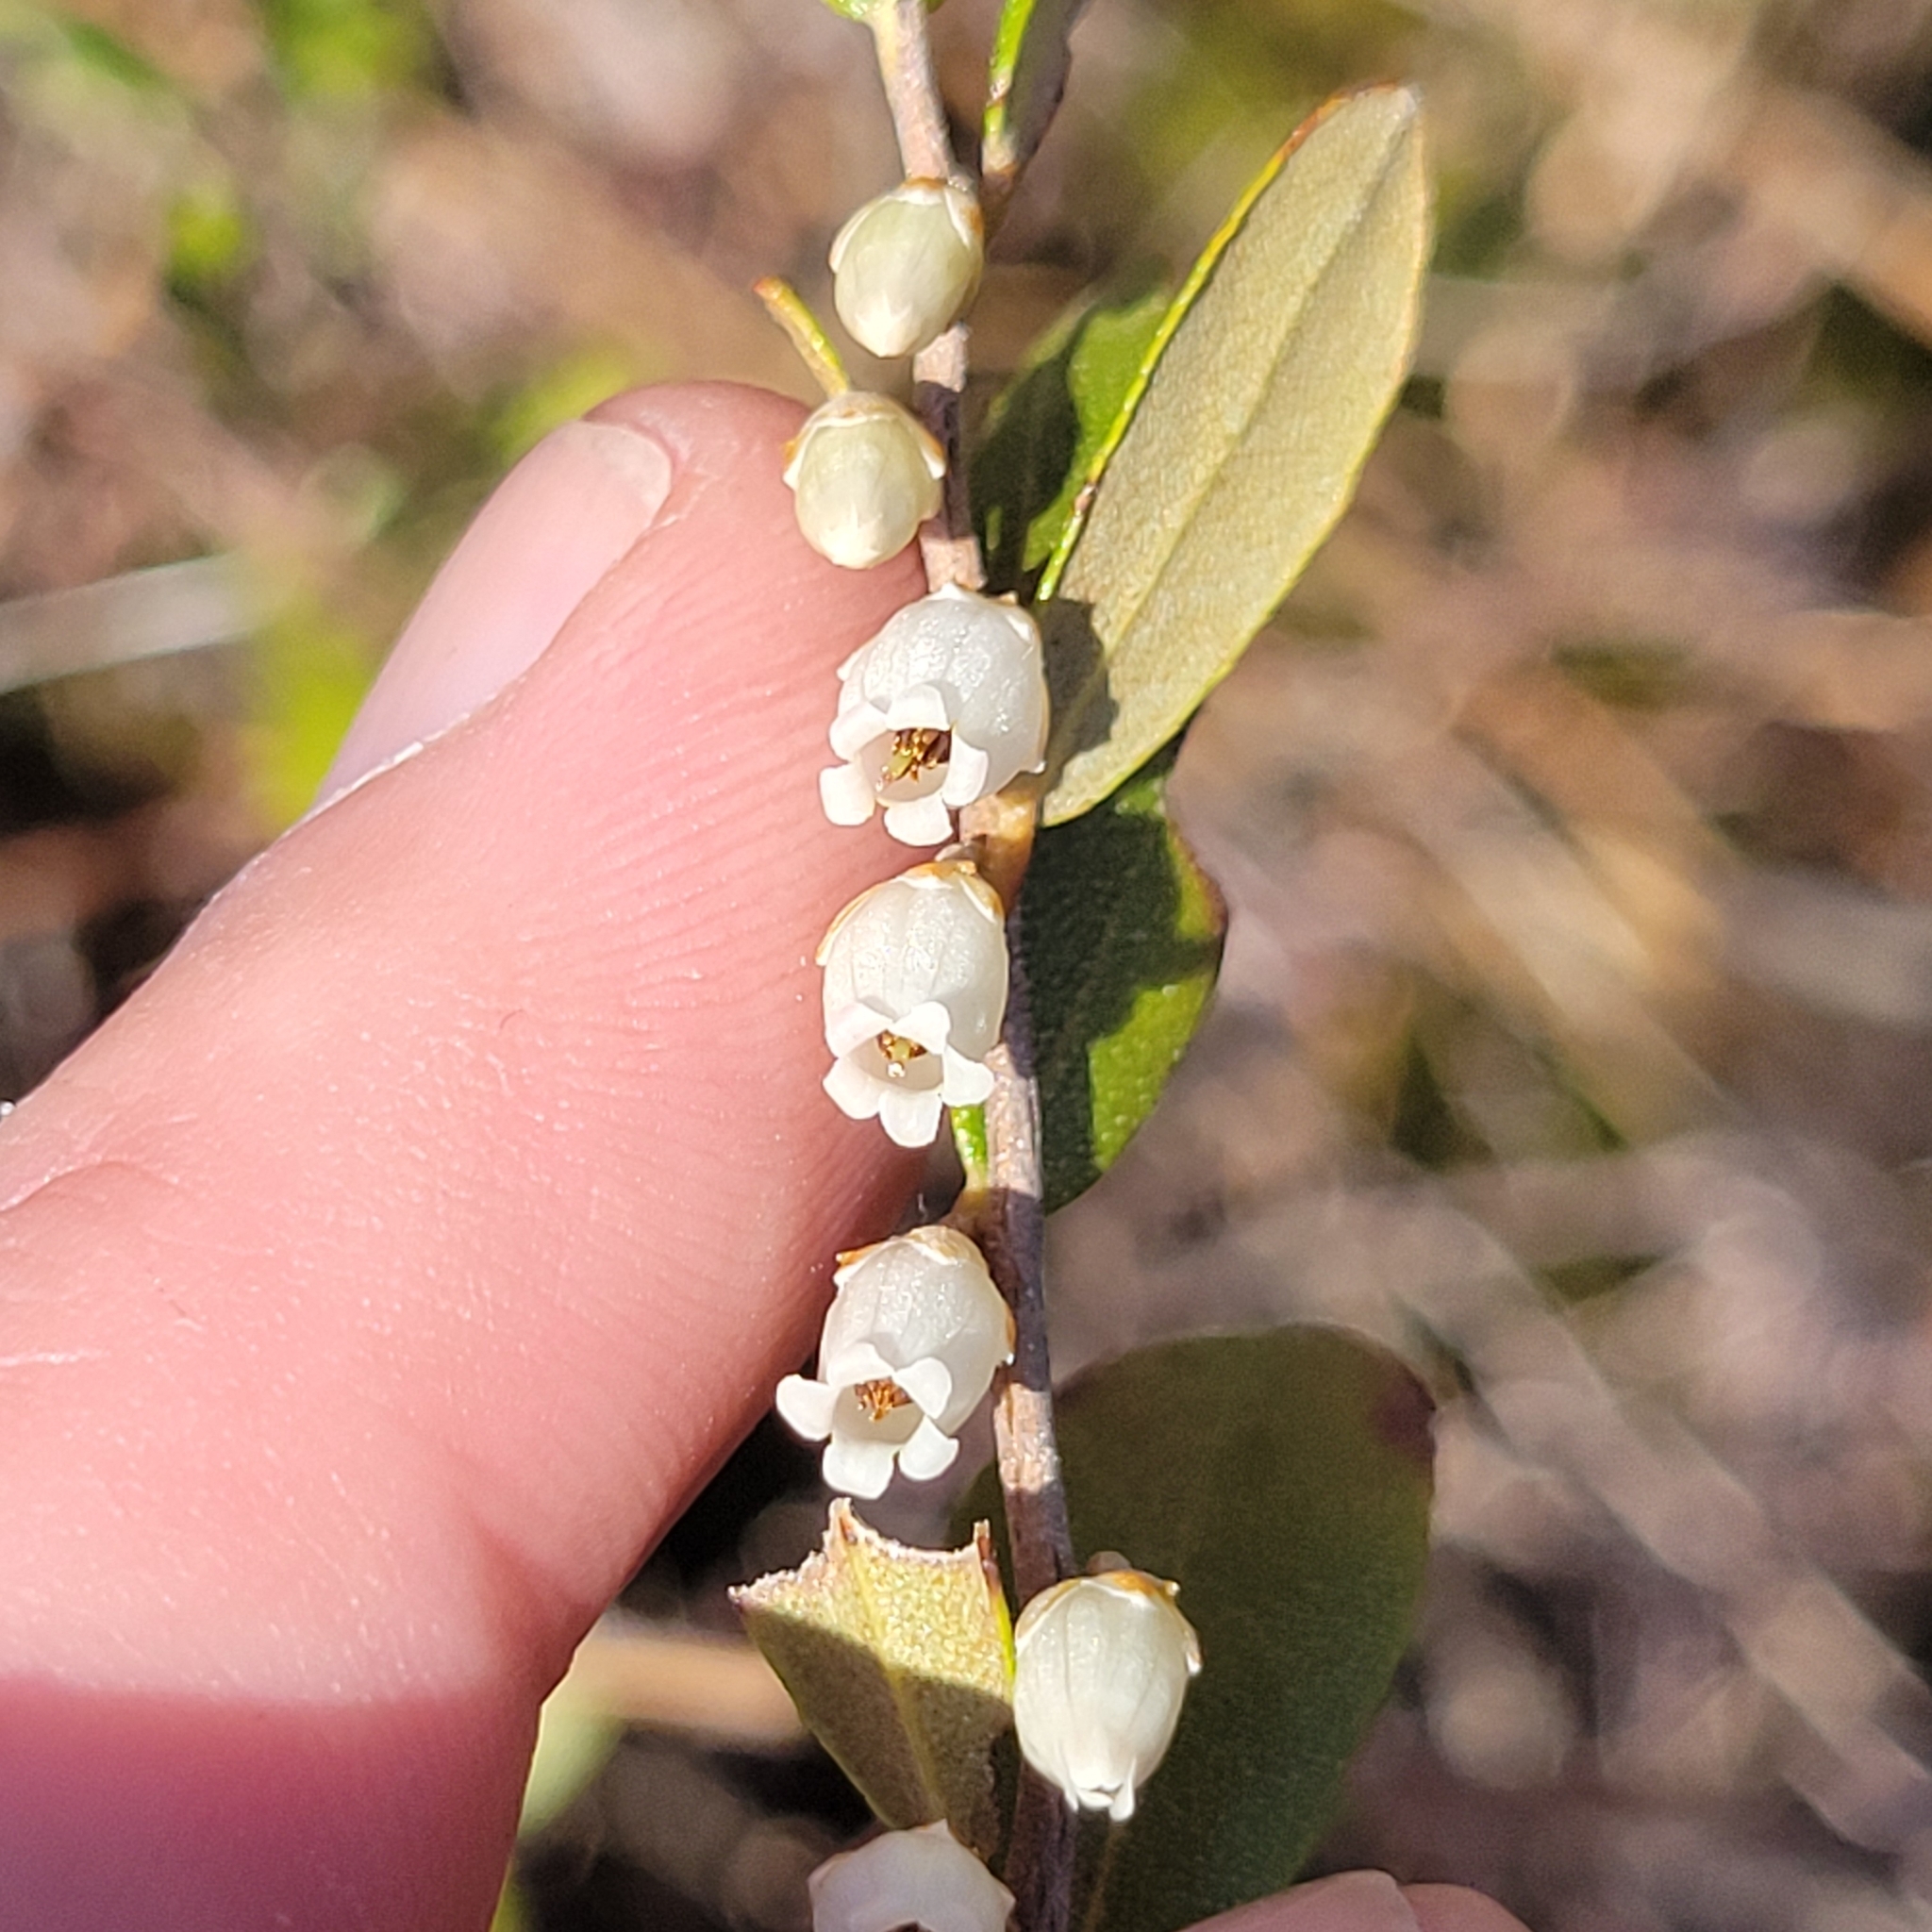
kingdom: Plantae
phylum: Tracheophyta
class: Magnoliopsida
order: Ericales
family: Ericaceae
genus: Chamaedaphne
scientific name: Chamaedaphne calyculata
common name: Leatherleaf
